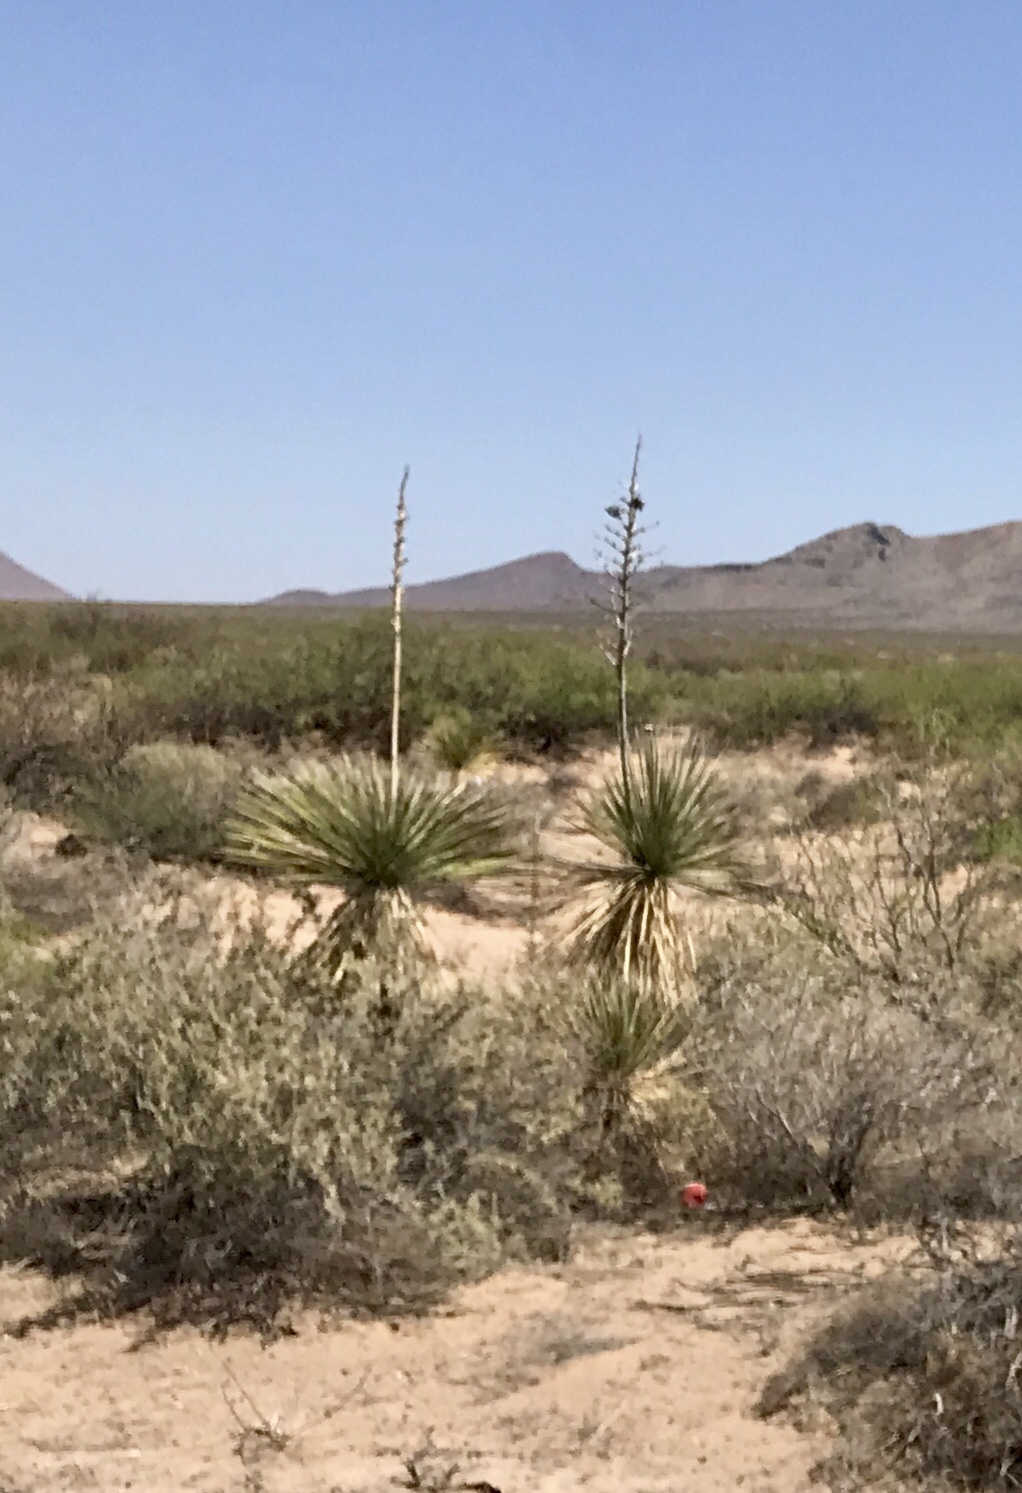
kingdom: Plantae
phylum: Tracheophyta
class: Liliopsida
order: Asparagales
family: Asparagaceae
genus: Yucca
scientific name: Yucca elata
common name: Palmella
